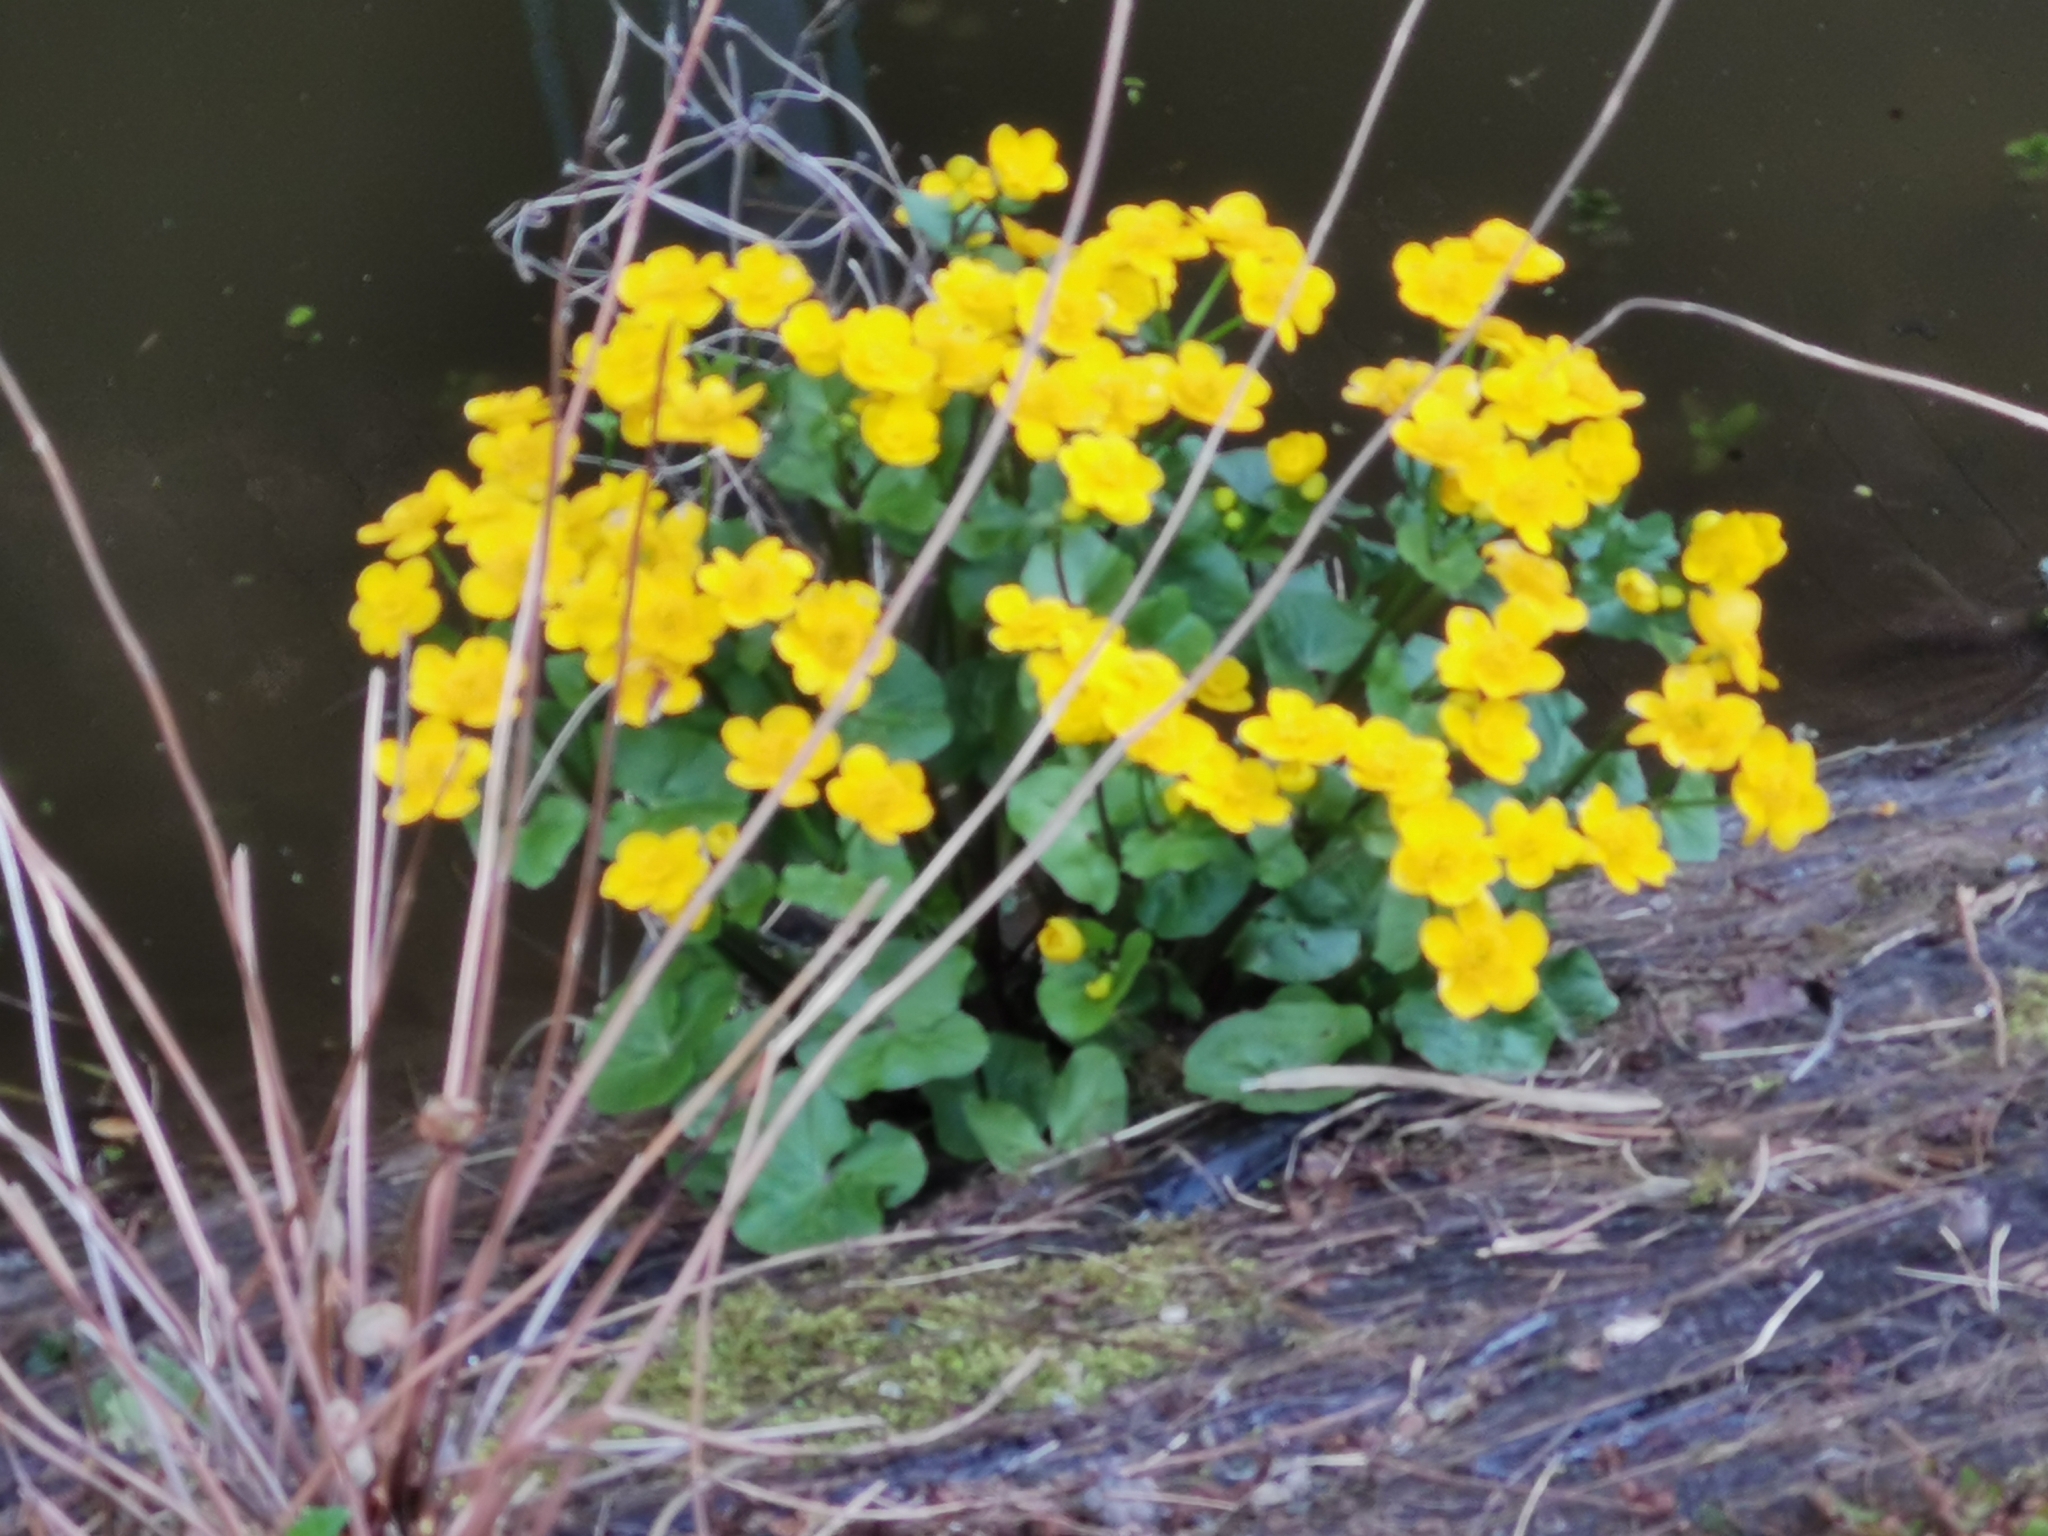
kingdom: Plantae
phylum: Tracheophyta
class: Magnoliopsida
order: Ranunculales
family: Ranunculaceae
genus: Caltha
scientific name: Caltha palustris
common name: Marsh marigold
